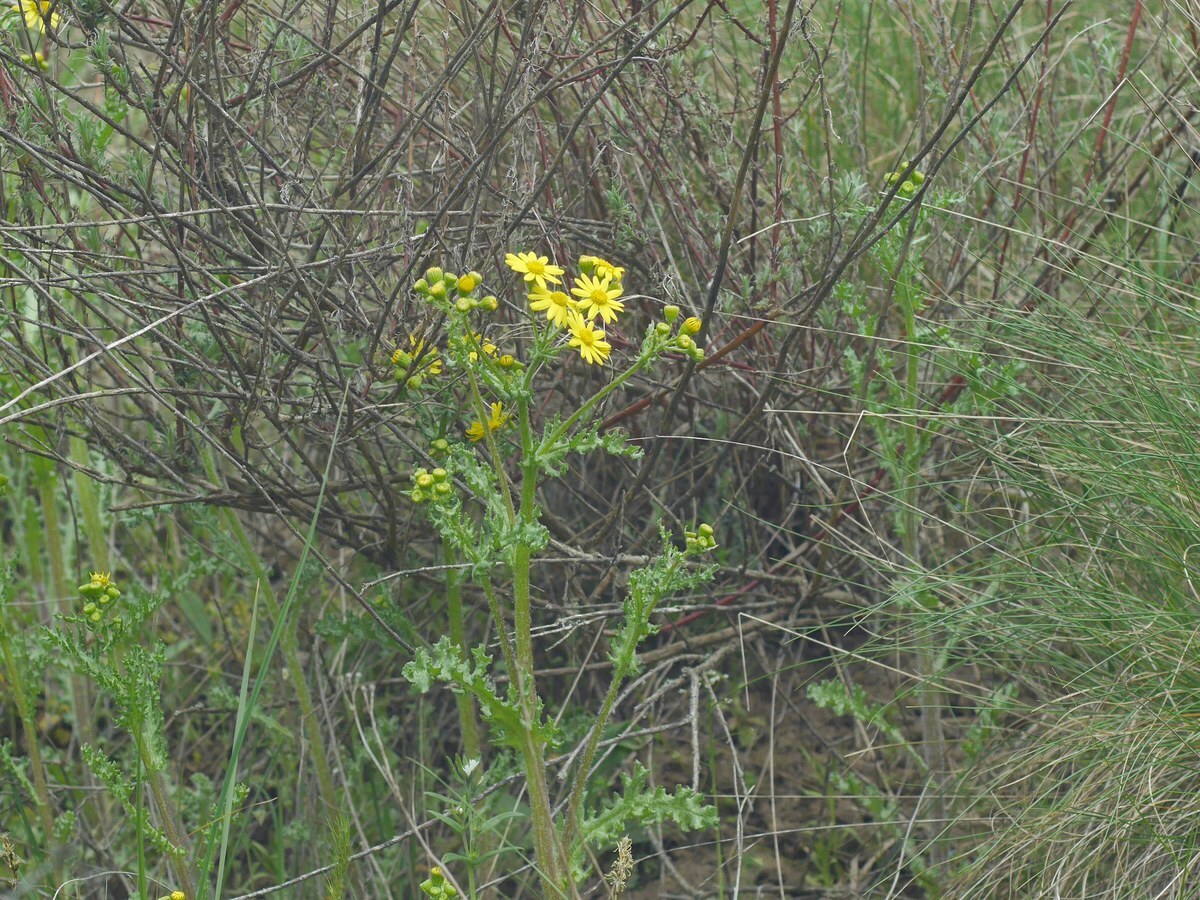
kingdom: Plantae
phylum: Tracheophyta
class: Magnoliopsida
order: Asterales
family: Asteraceae
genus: Senecio
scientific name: Senecio vernalis
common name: Eastern groundsel
